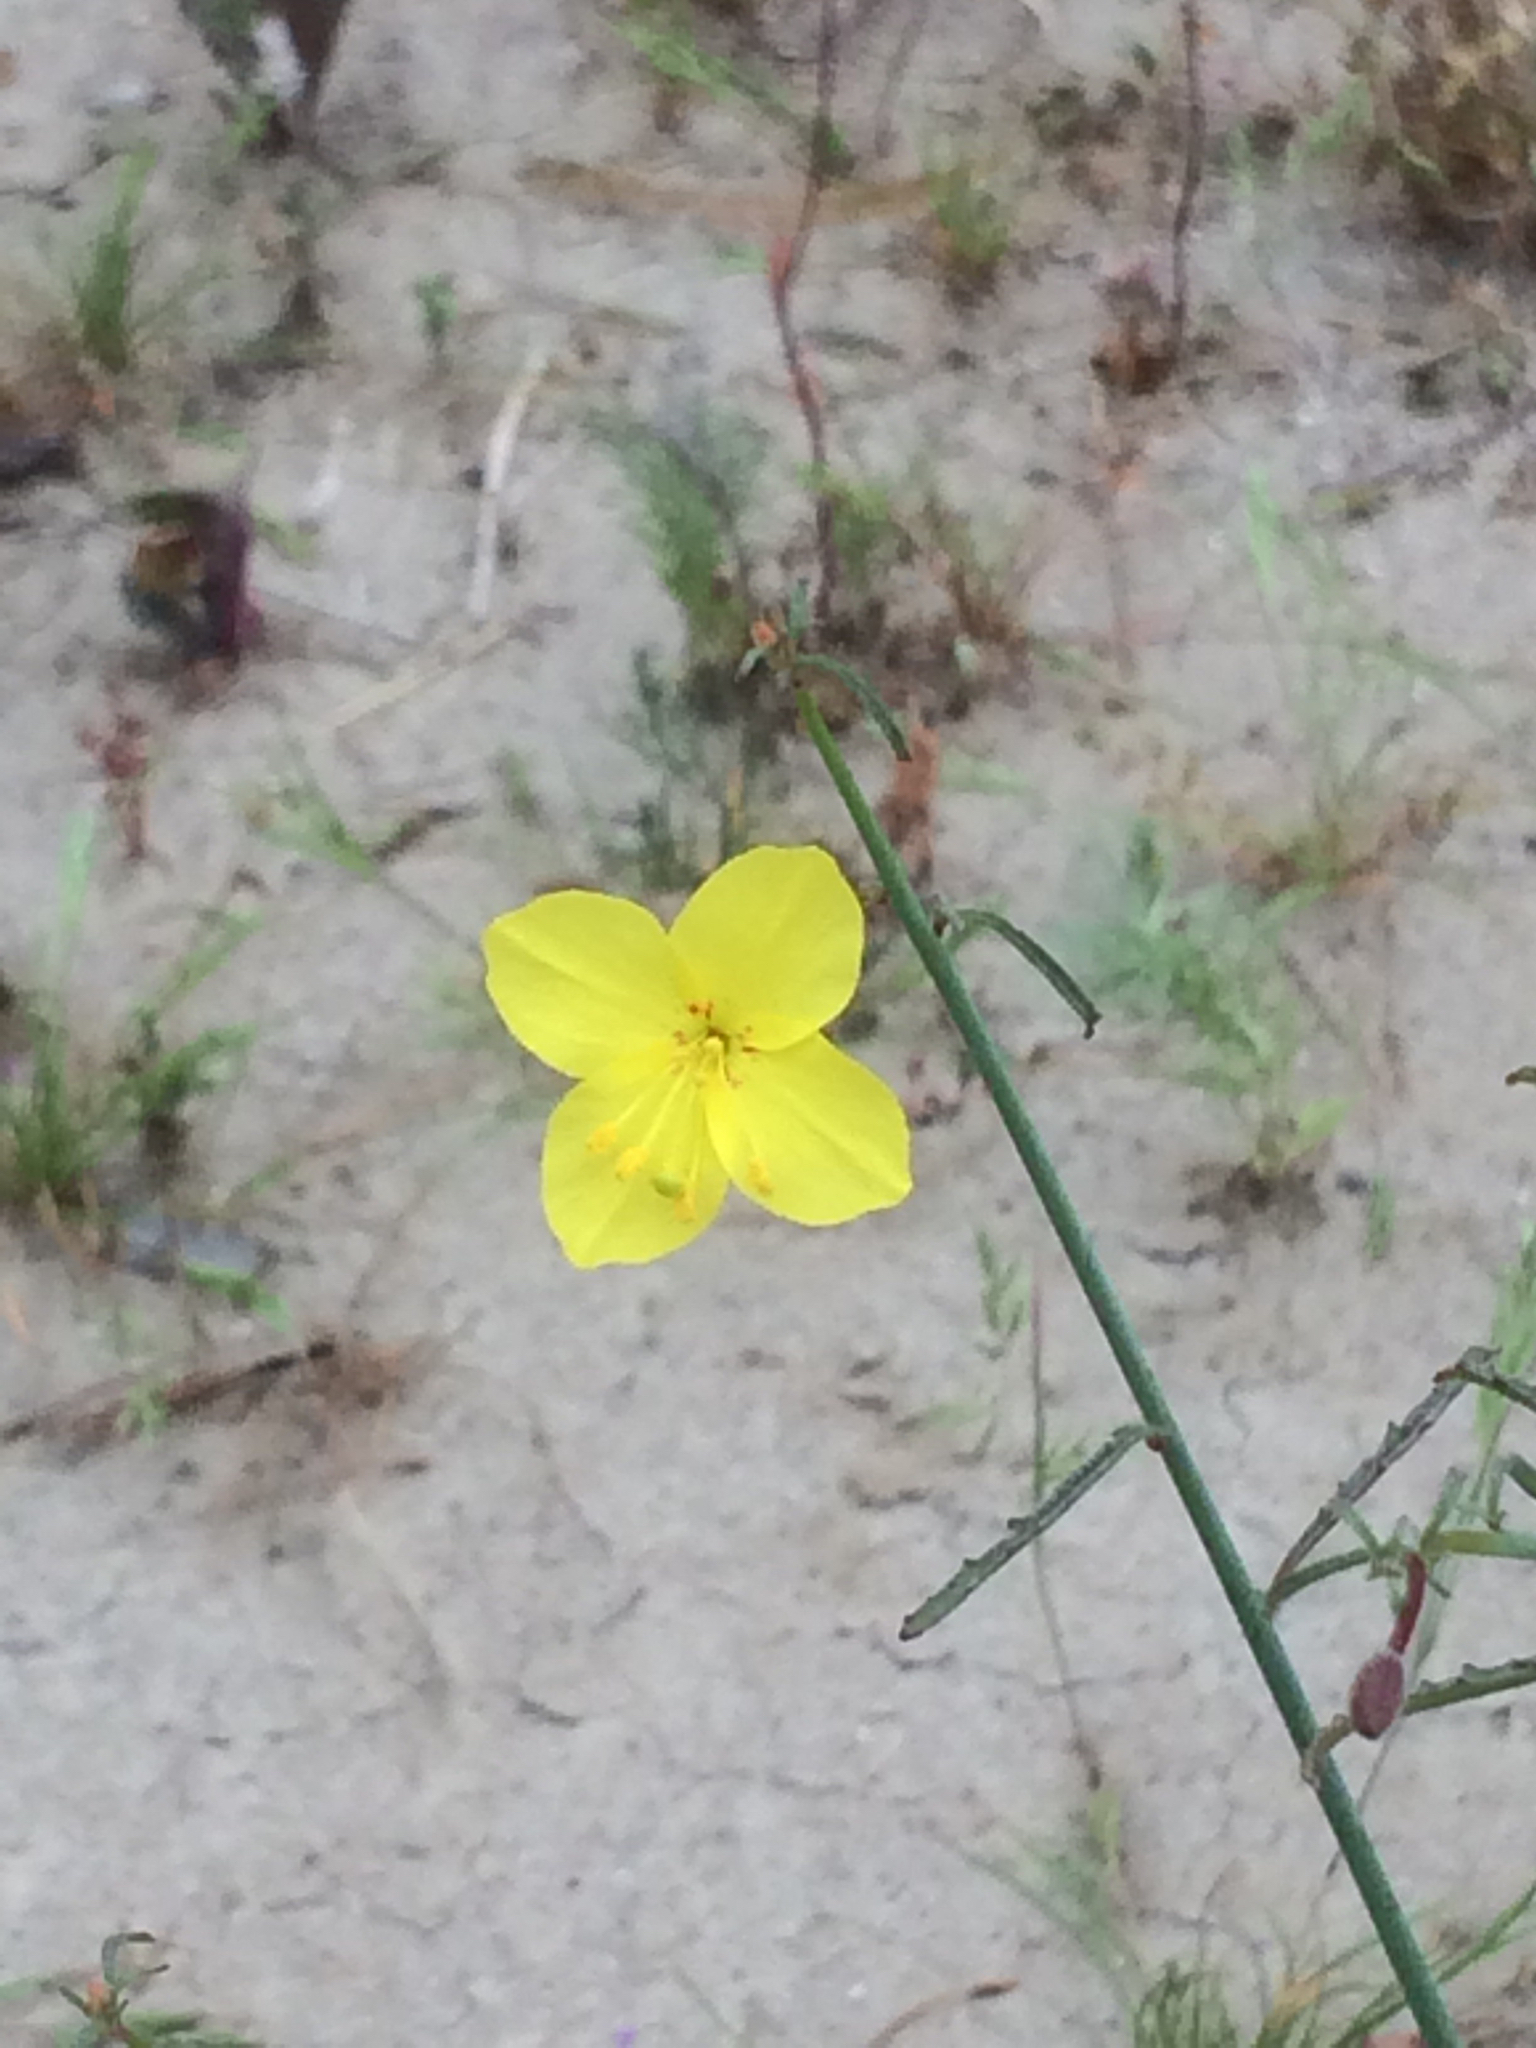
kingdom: Plantae
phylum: Tracheophyta
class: Magnoliopsida
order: Myrtales
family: Onagraceae
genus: Eulobus
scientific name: Eulobus californicus
